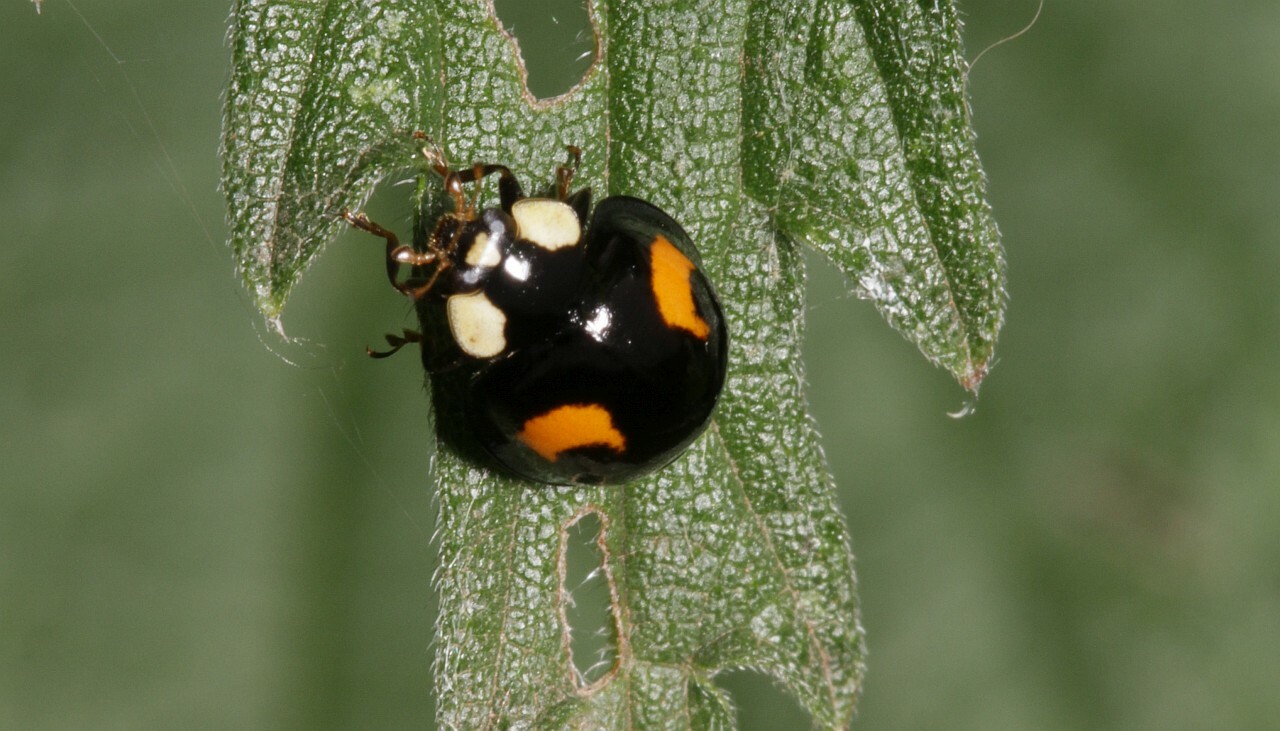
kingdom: Animalia
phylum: Arthropoda
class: Insecta
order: Coleoptera
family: Coccinellidae
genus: Harmonia
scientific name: Harmonia axyridis
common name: Harlequin ladybird
